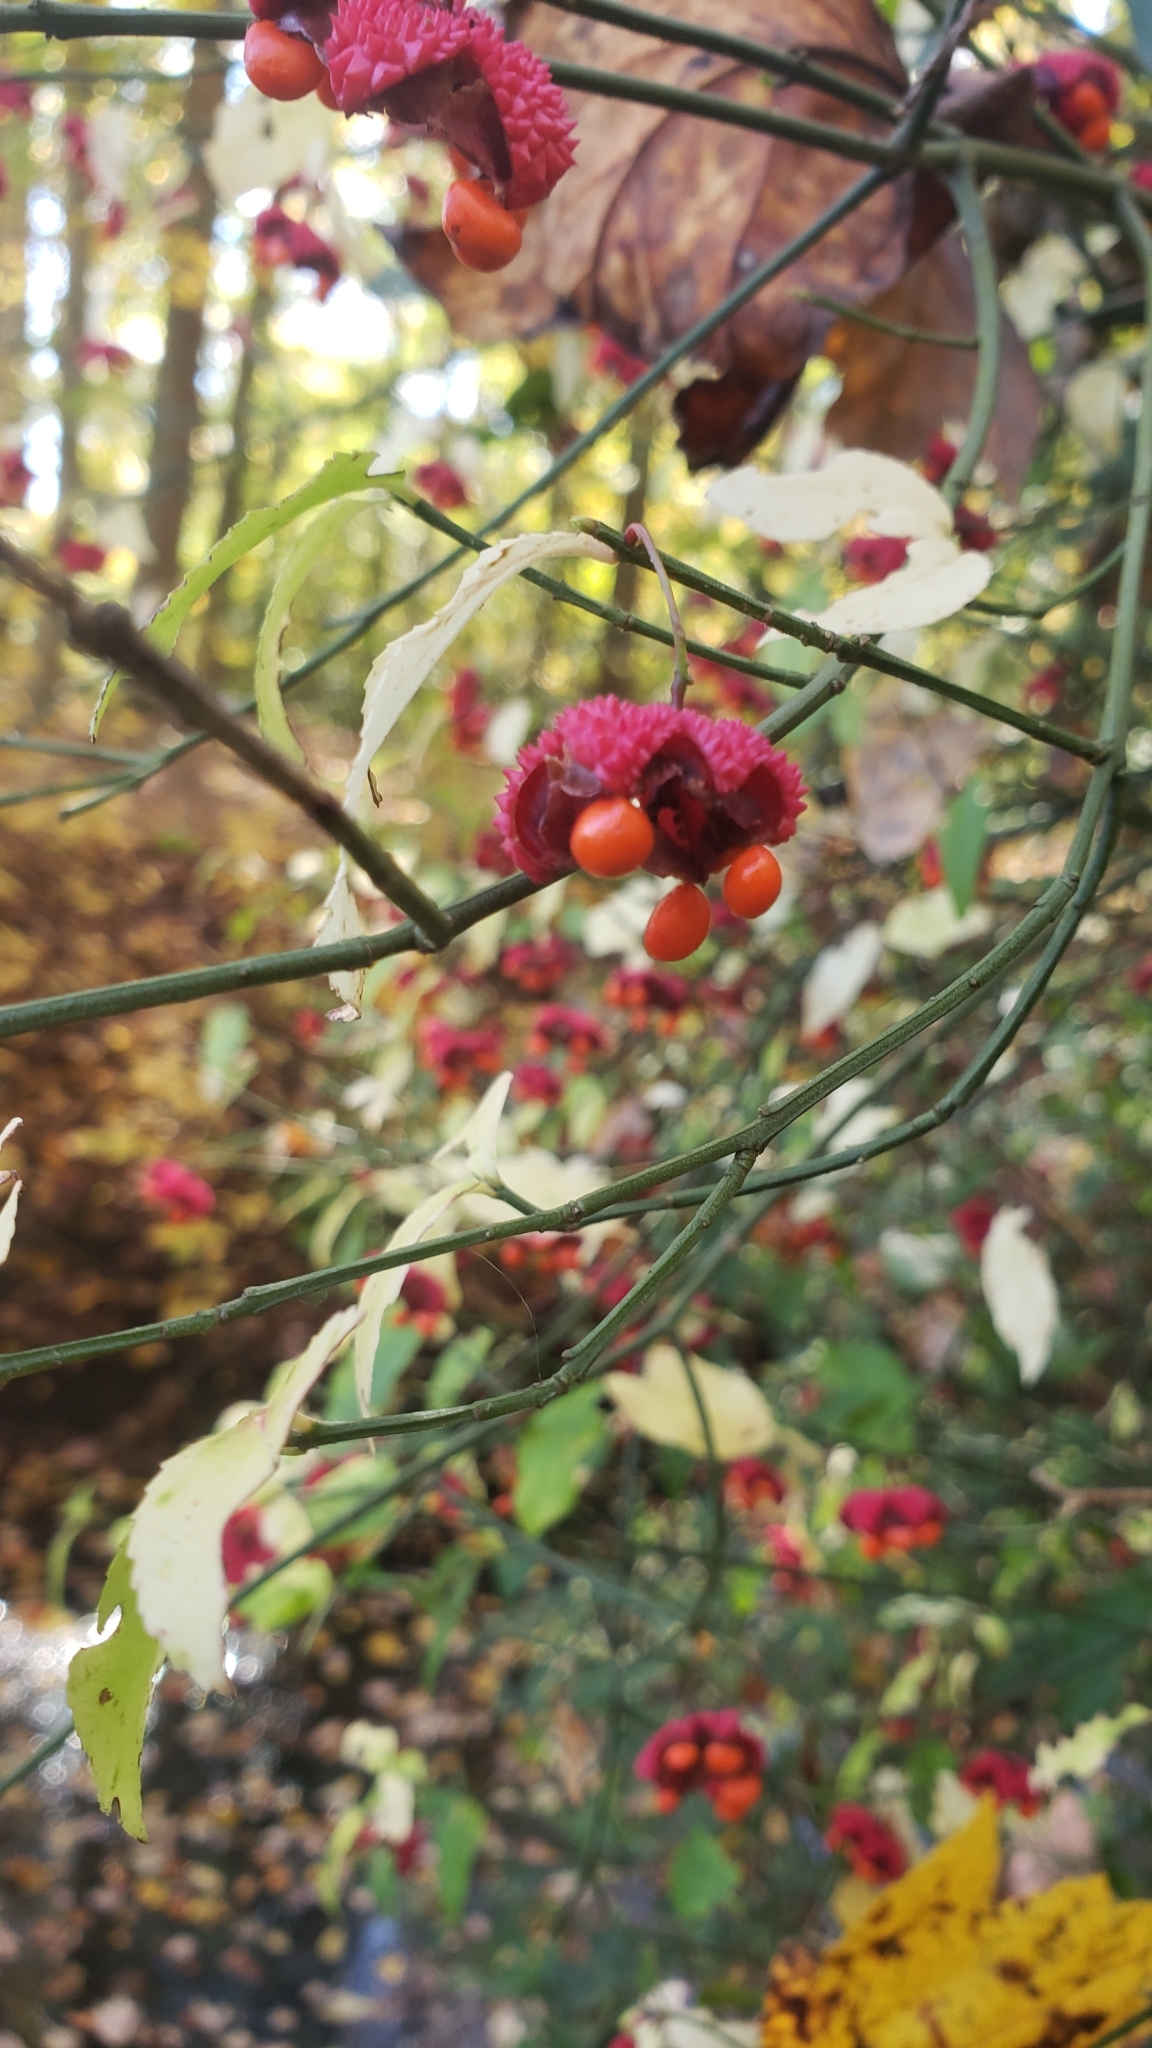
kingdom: Plantae
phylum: Tracheophyta
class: Magnoliopsida
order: Celastrales
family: Celastraceae
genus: Euonymus
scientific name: Euonymus americanus
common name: Bursting-heart
